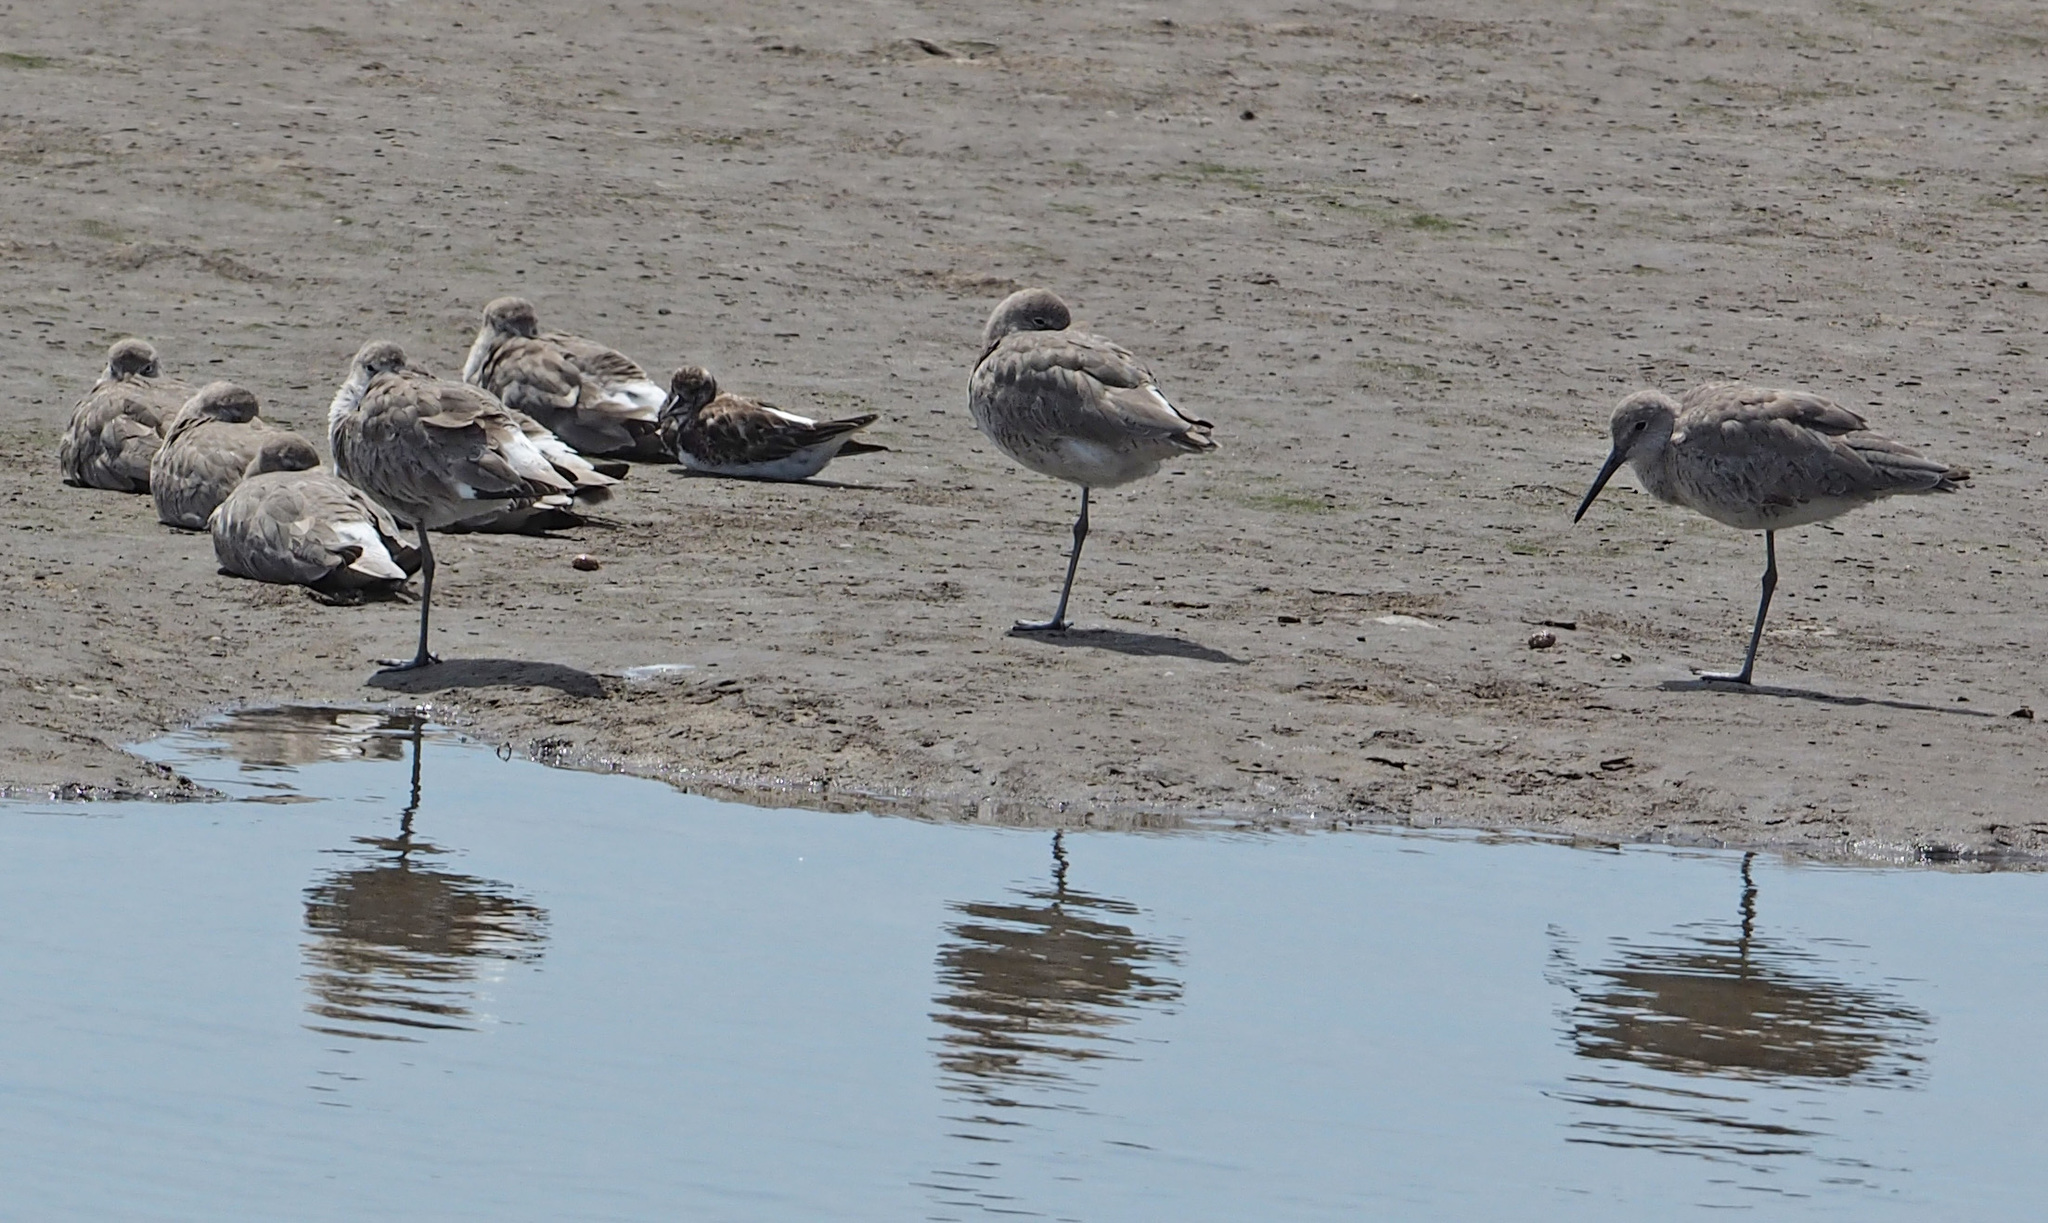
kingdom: Animalia
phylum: Chordata
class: Aves
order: Charadriiformes
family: Scolopacidae
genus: Tringa
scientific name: Tringa semipalmata
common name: Willet
